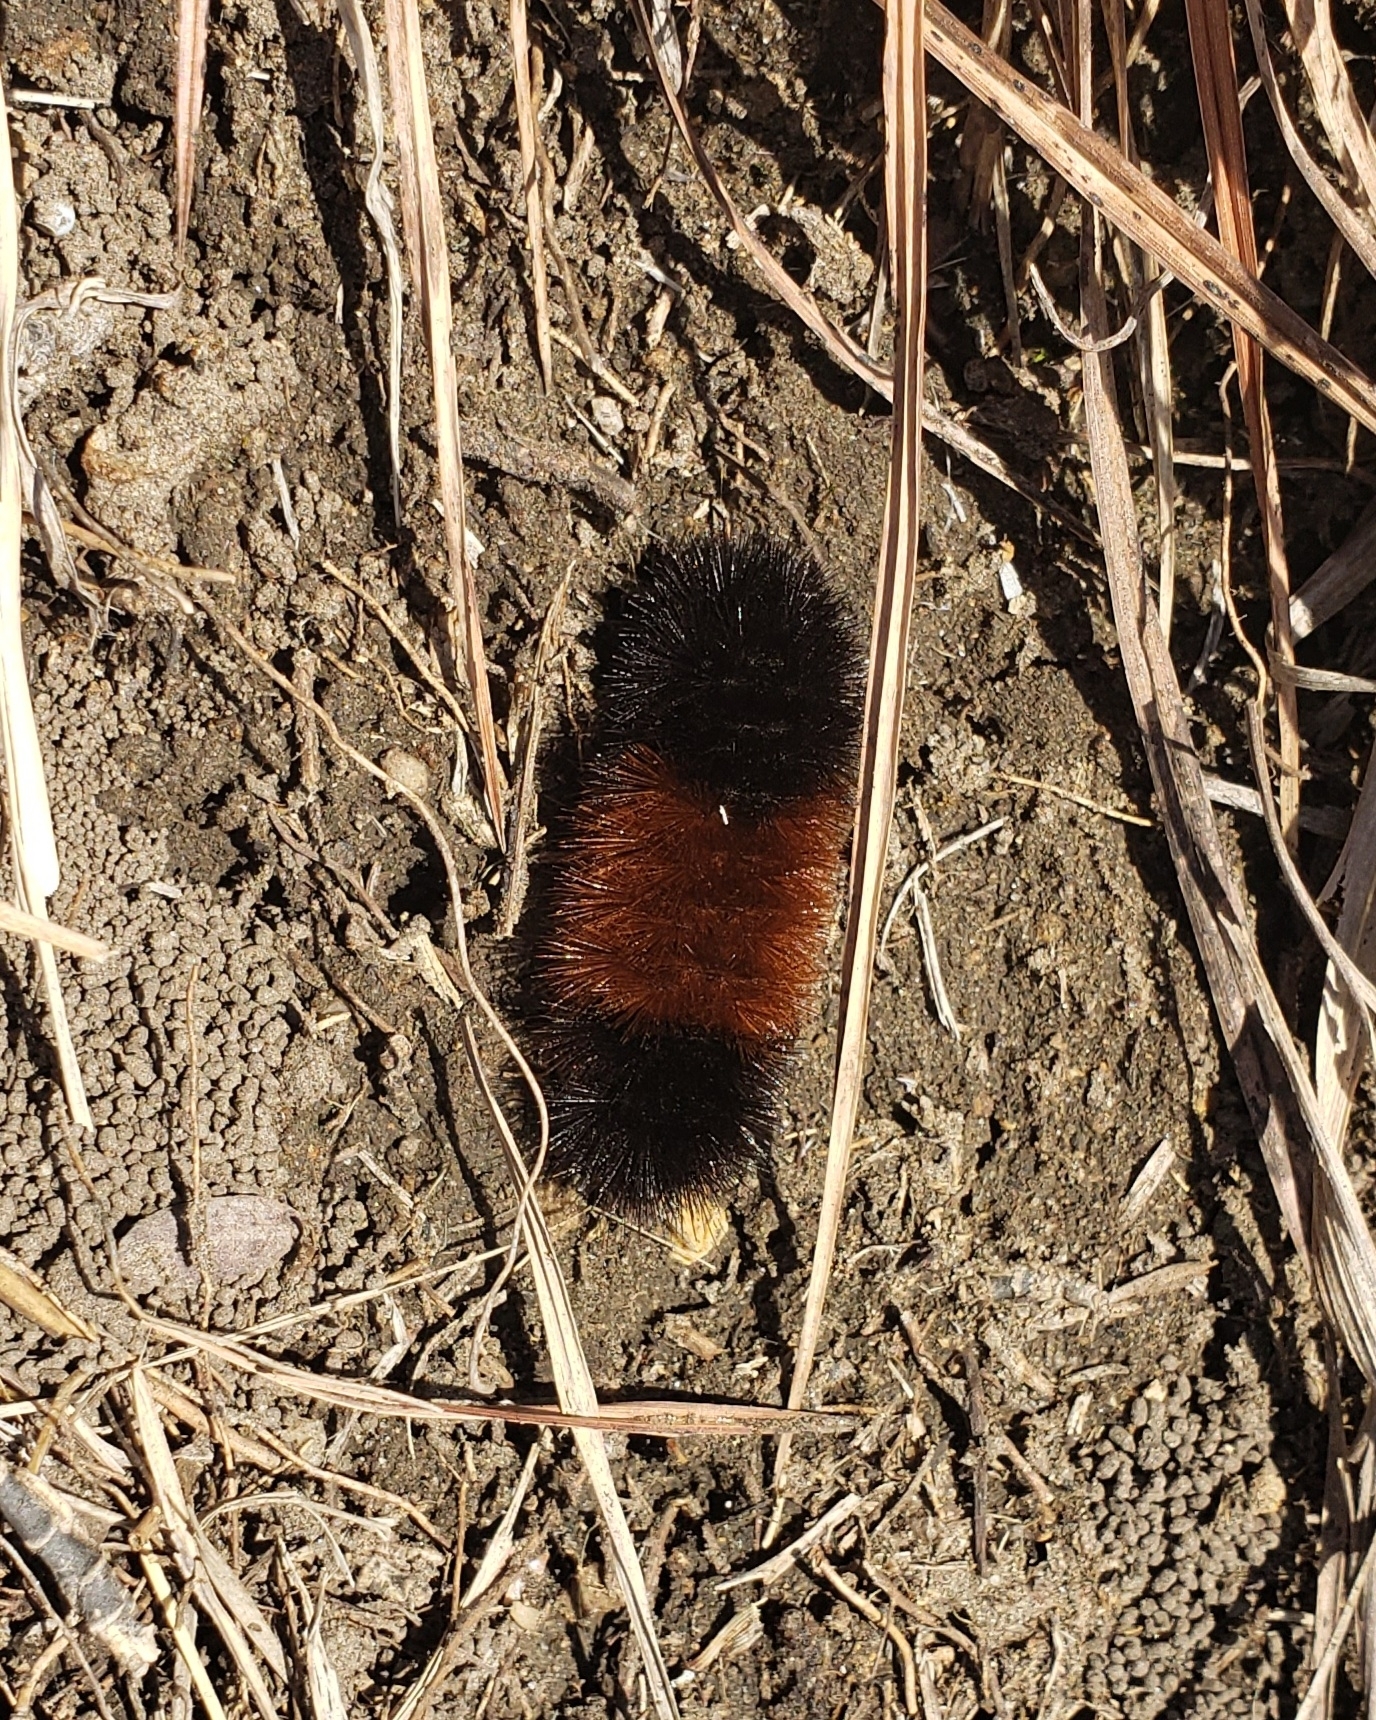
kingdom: Animalia
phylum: Arthropoda
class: Insecta
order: Lepidoptera
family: Erebidae
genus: Pyrrharctia
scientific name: Pyrrharctia isabella
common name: Isabella tiger moth
